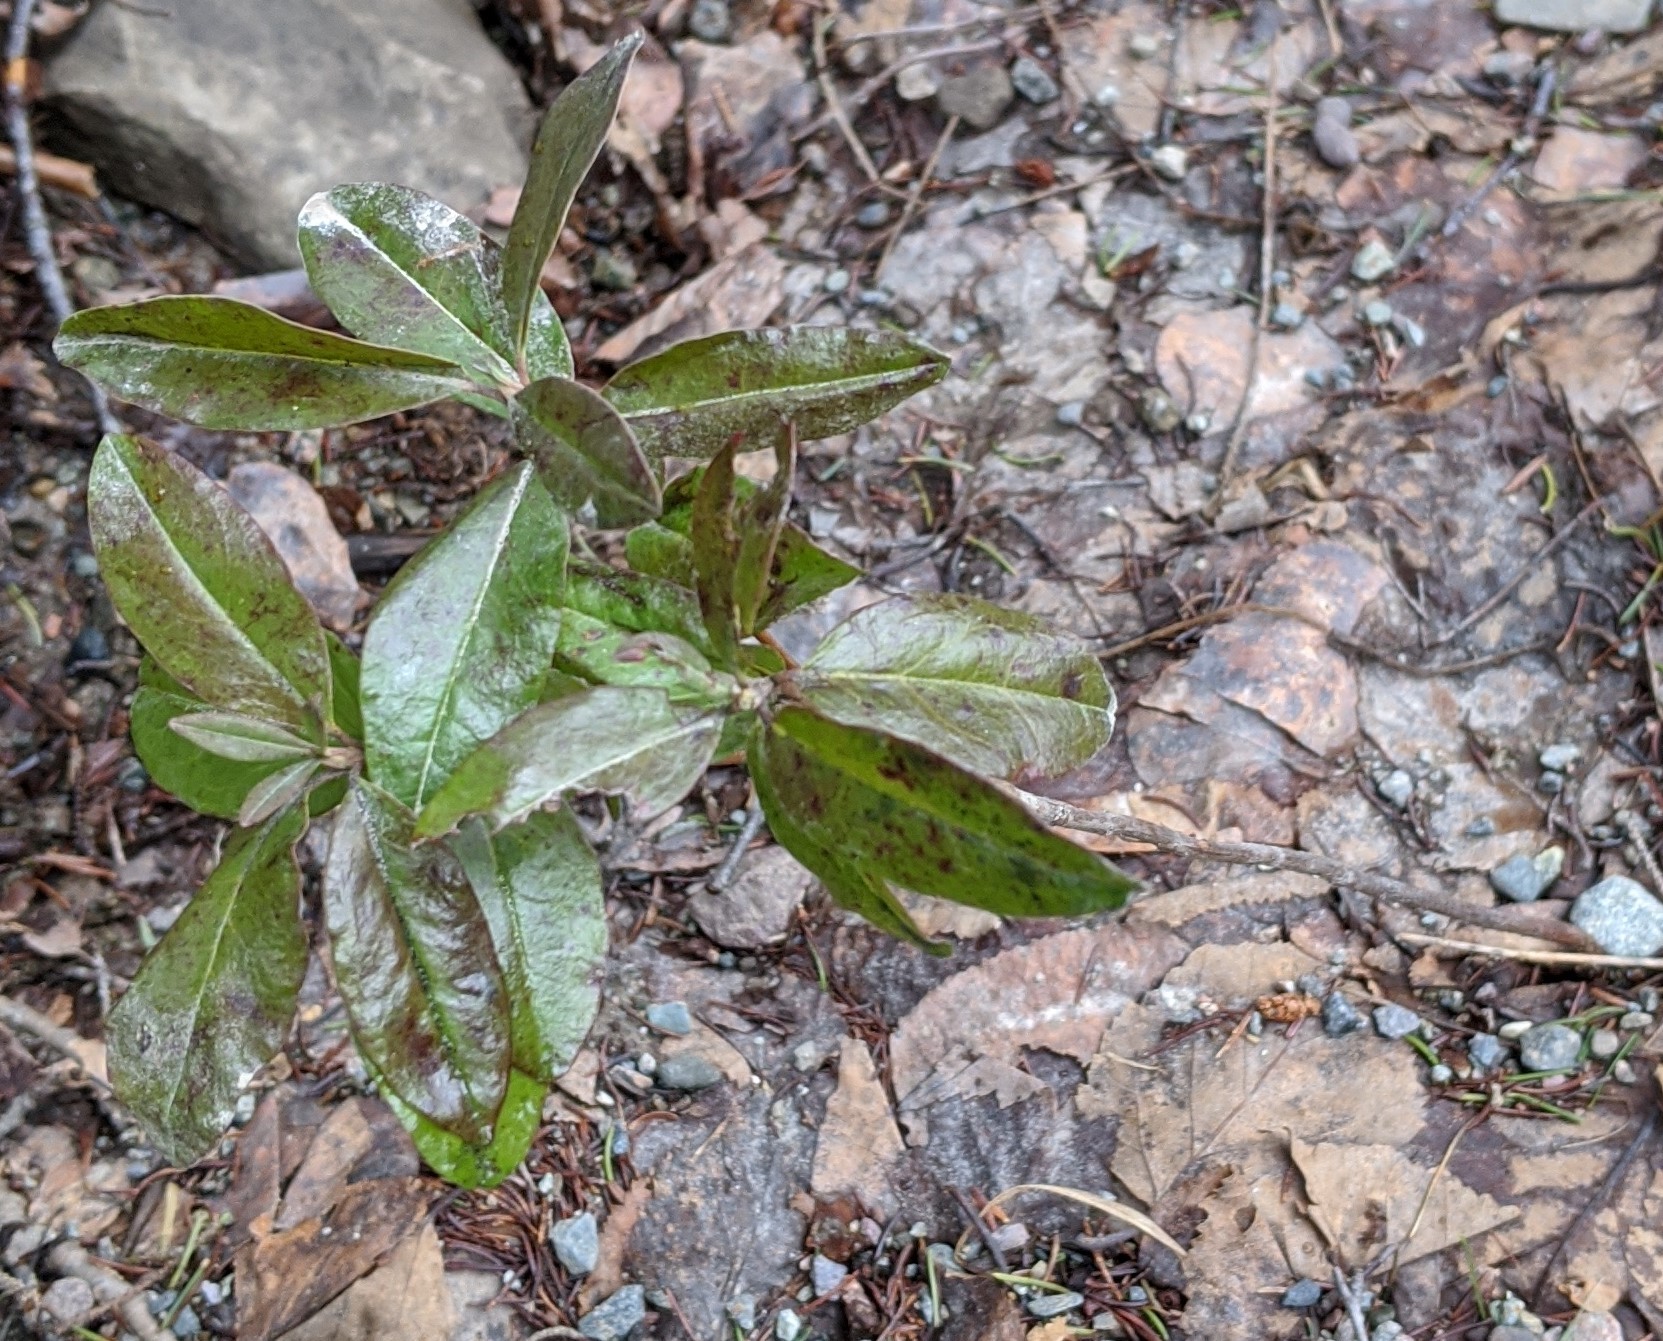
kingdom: Plantae
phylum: Tracheophyta
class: Magnoliopsida
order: Ericales
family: Ericaceae
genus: Kalmia
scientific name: Kalmia angustifolia
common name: Sheep-laurel
